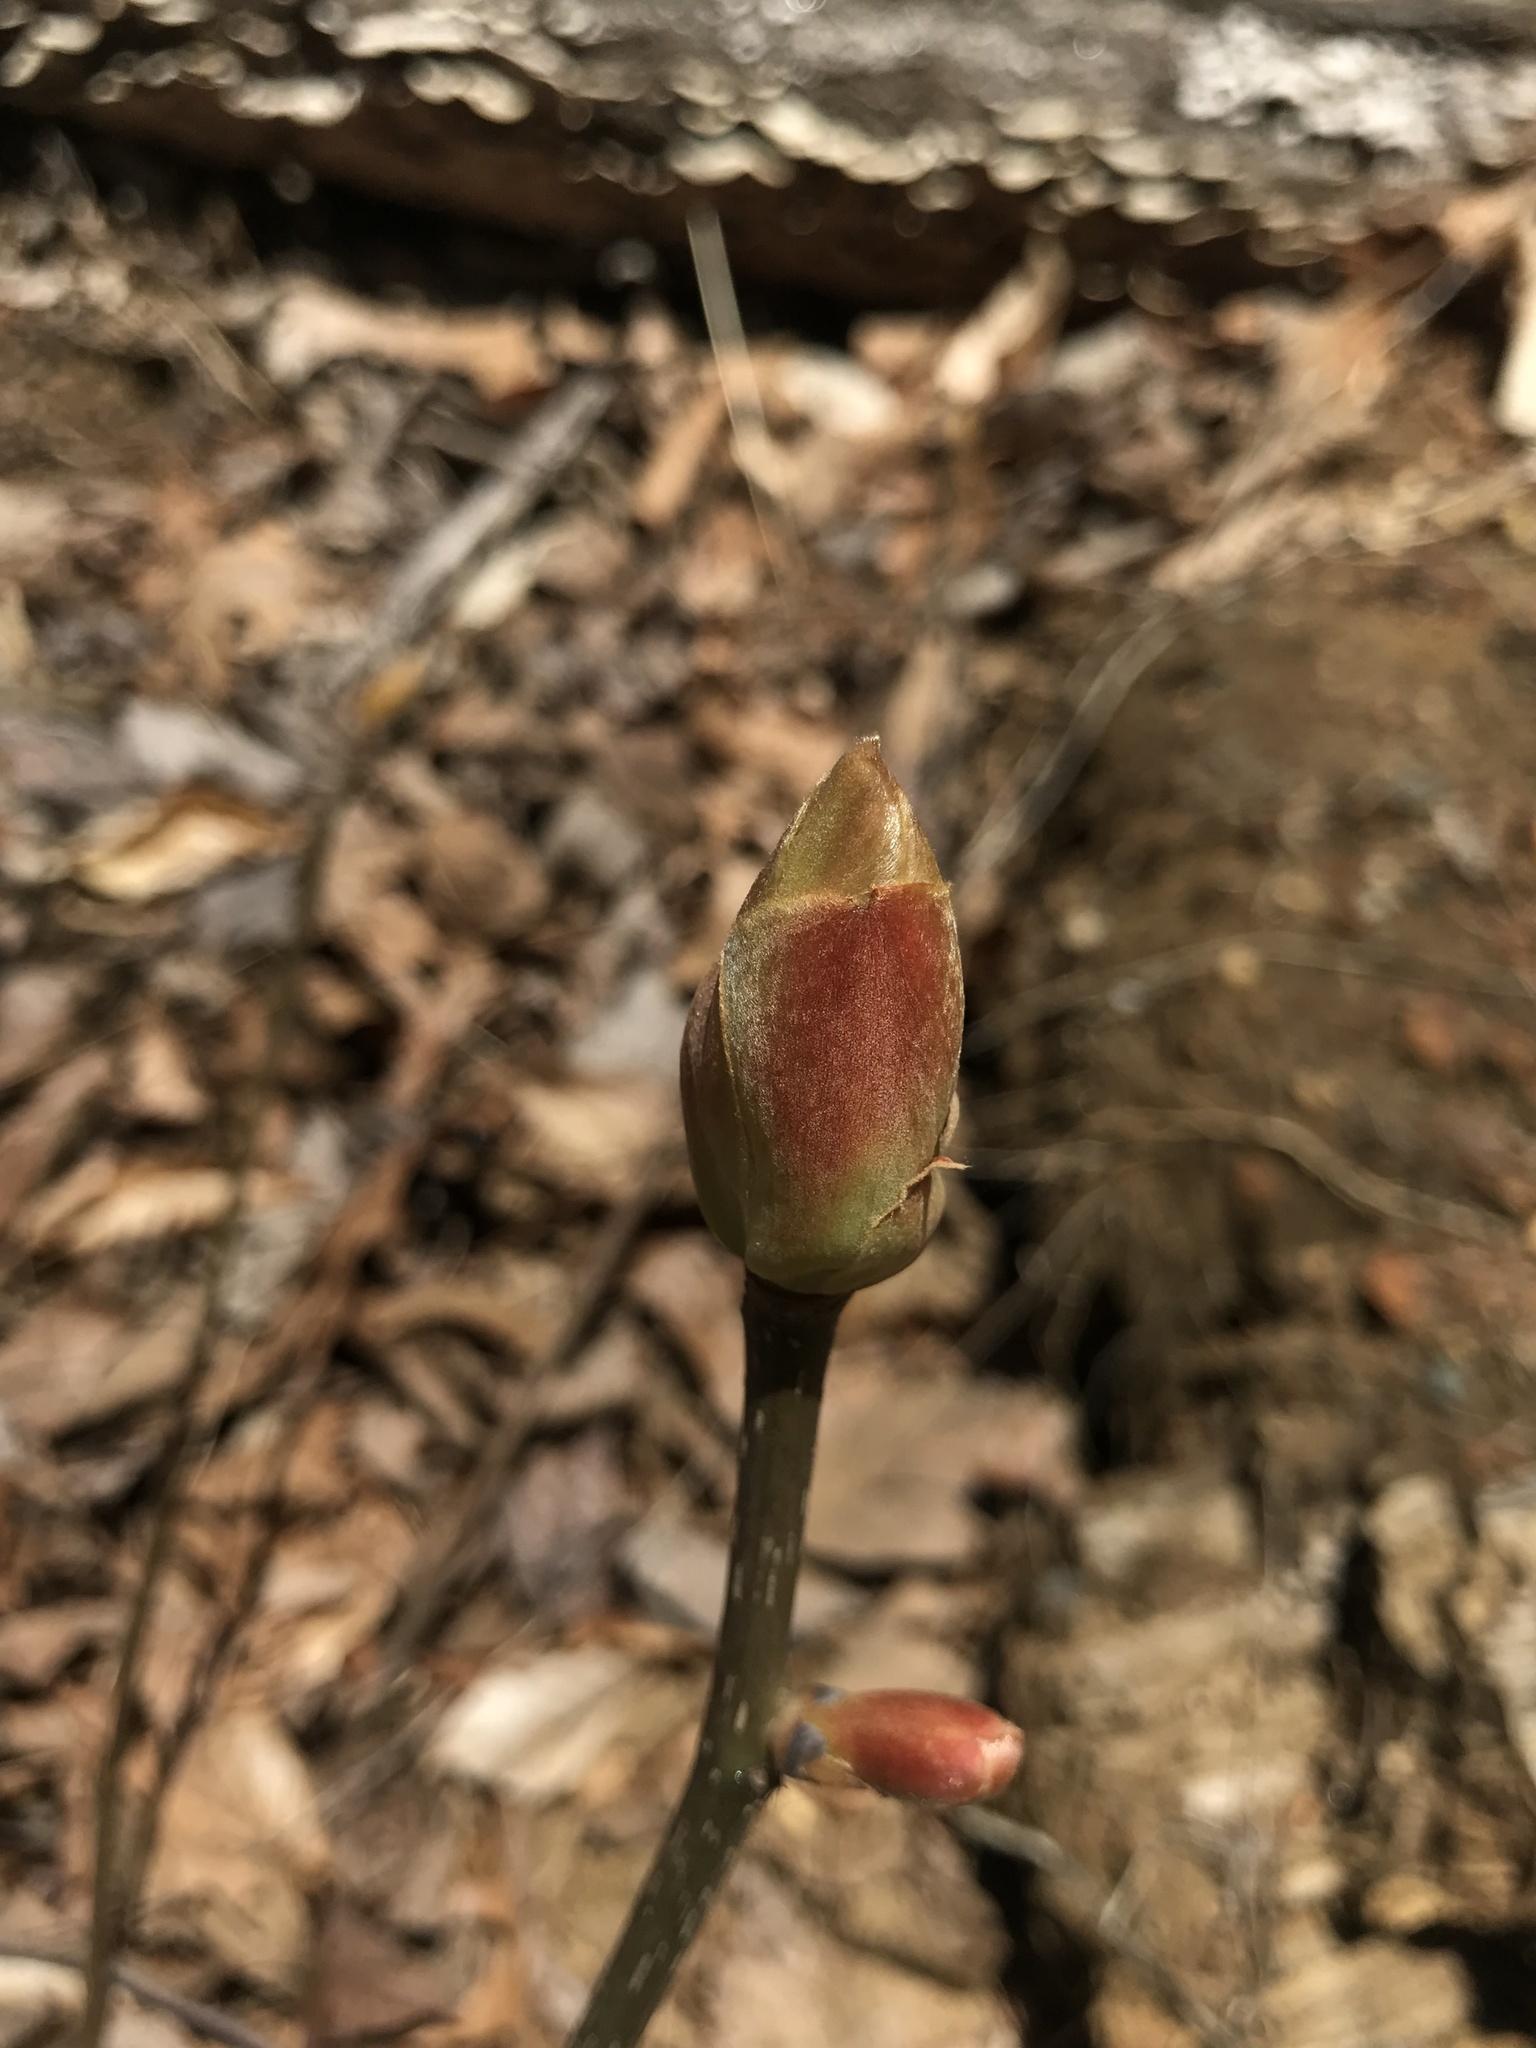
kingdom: Plantae
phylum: Tracheophyta
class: Magnoliopsida
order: Laurales
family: Lauraceae
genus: Sassafras
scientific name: Sassafras albidum
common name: Sassafras
